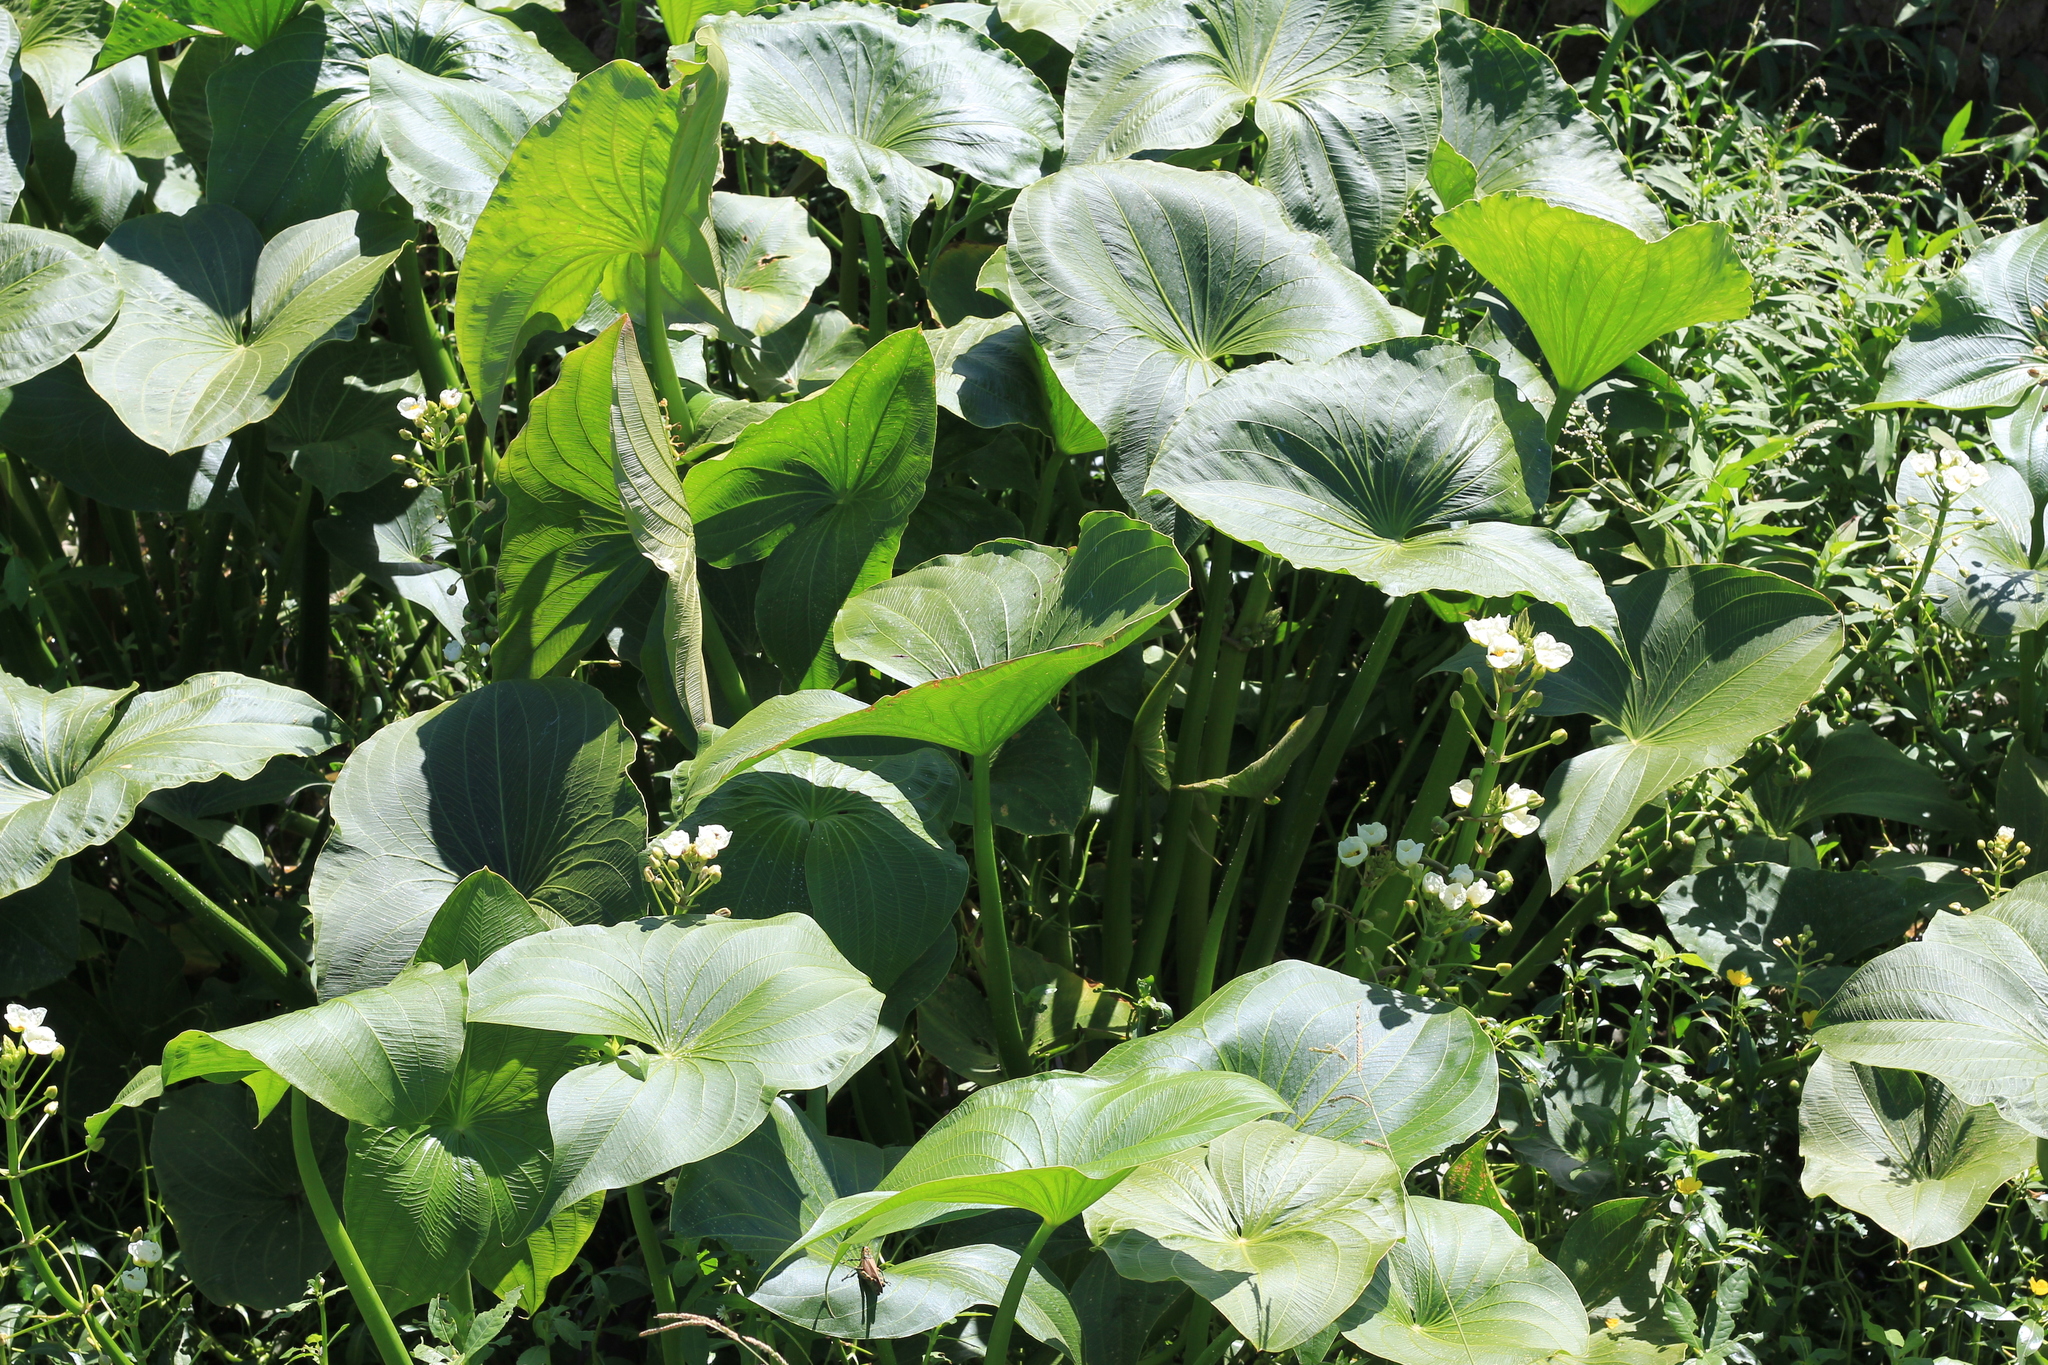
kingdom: Plantae
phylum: Tracheophyta
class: Liliopsida
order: Alismatales
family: Alismataceae
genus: Sagittaria
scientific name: Sagittaria montevidensis
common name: Giant arrowhead
